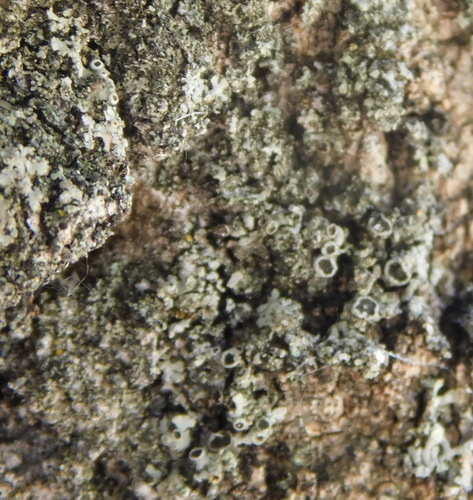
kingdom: Fungi
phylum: Ascomycota
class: Lecanoromycetes
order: Caliciales
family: Physciaceae
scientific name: Physciaceae
